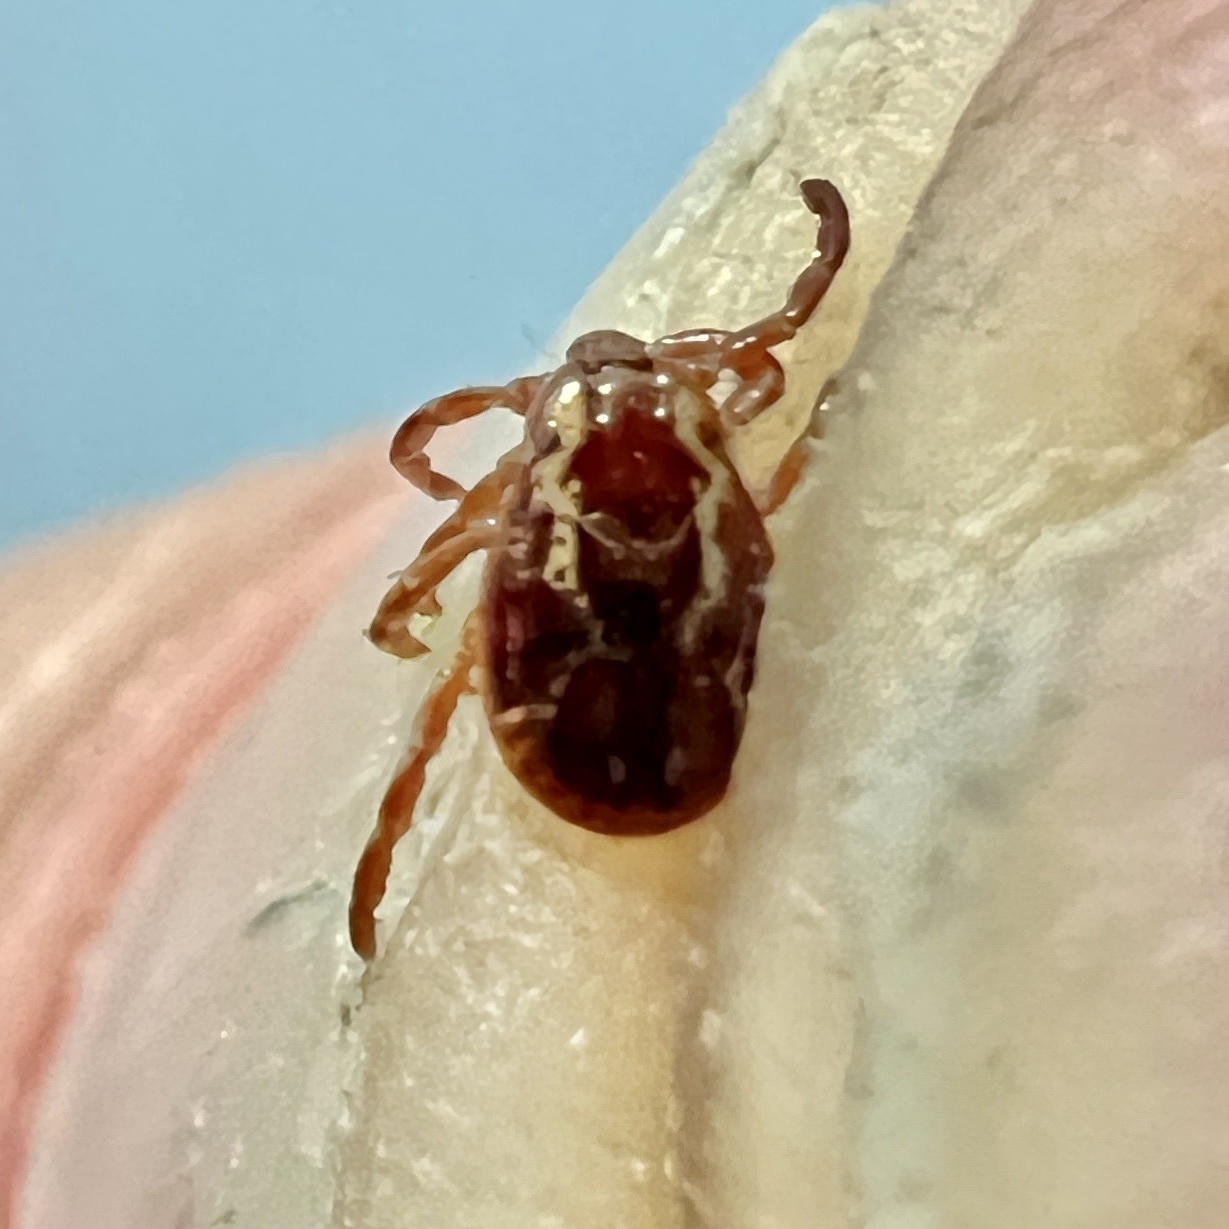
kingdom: Animalia
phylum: Arthropoda
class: Arachnida
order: Ixodida
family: Ixodidae
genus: Dermacentor
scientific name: Dermacentor variabilis
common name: American dog tick
